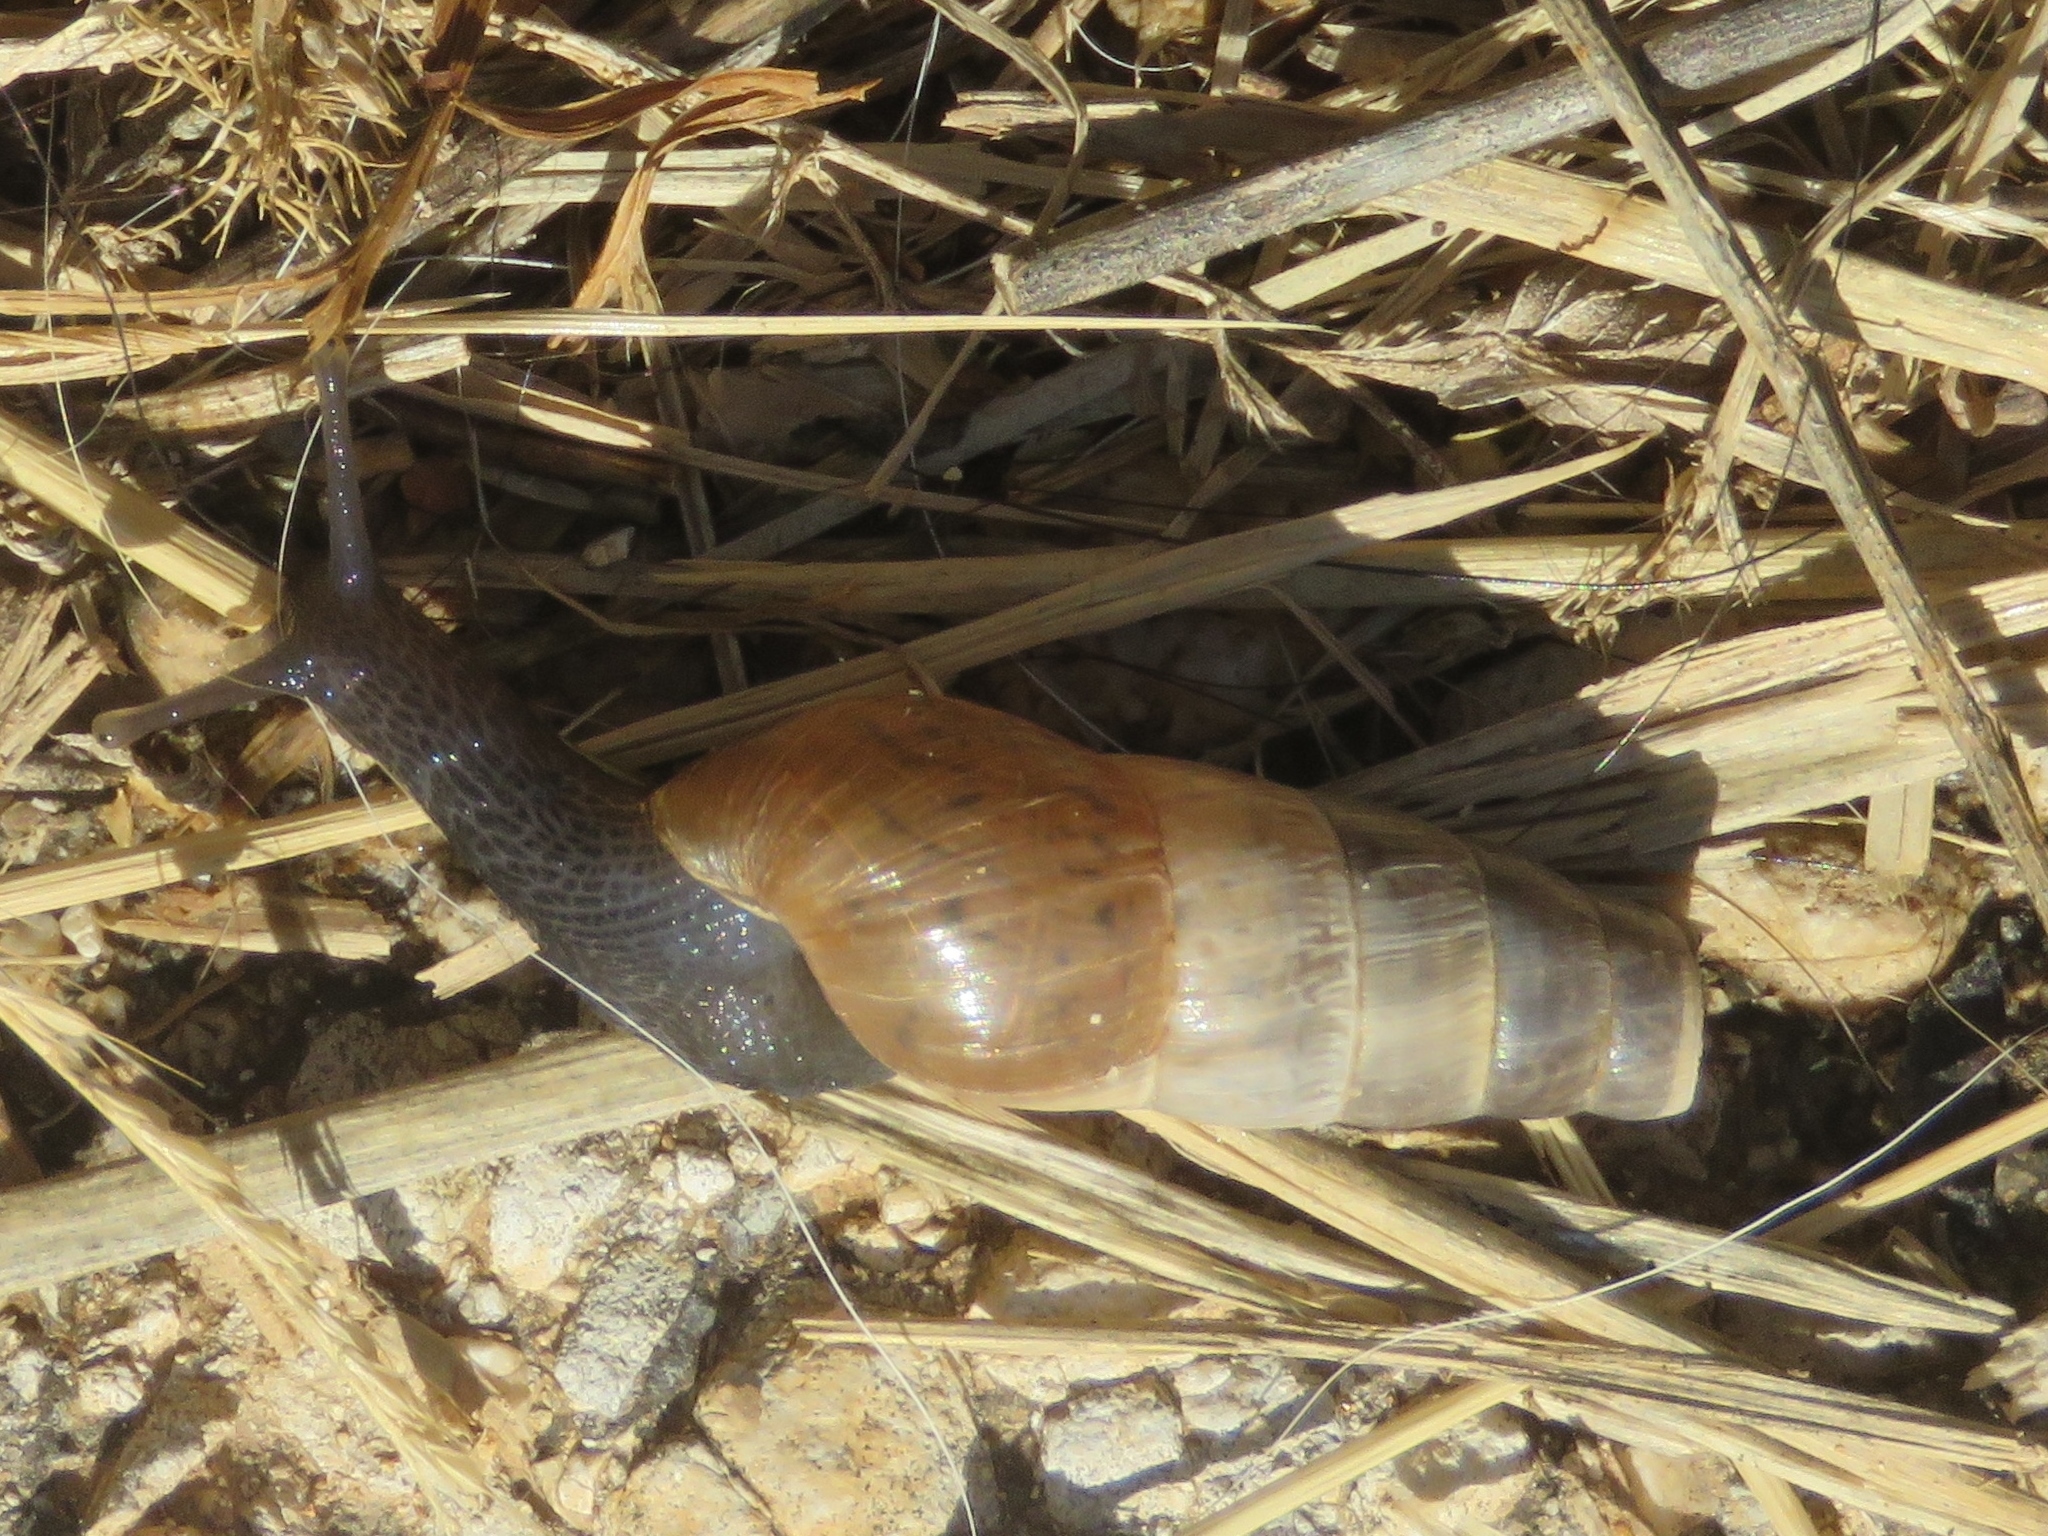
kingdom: Animalia
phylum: Mollusca
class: Gastropoda
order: Stylommatophora
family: Achatinidae
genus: Rumina
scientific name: Rumina decollata
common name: Decollate snail
